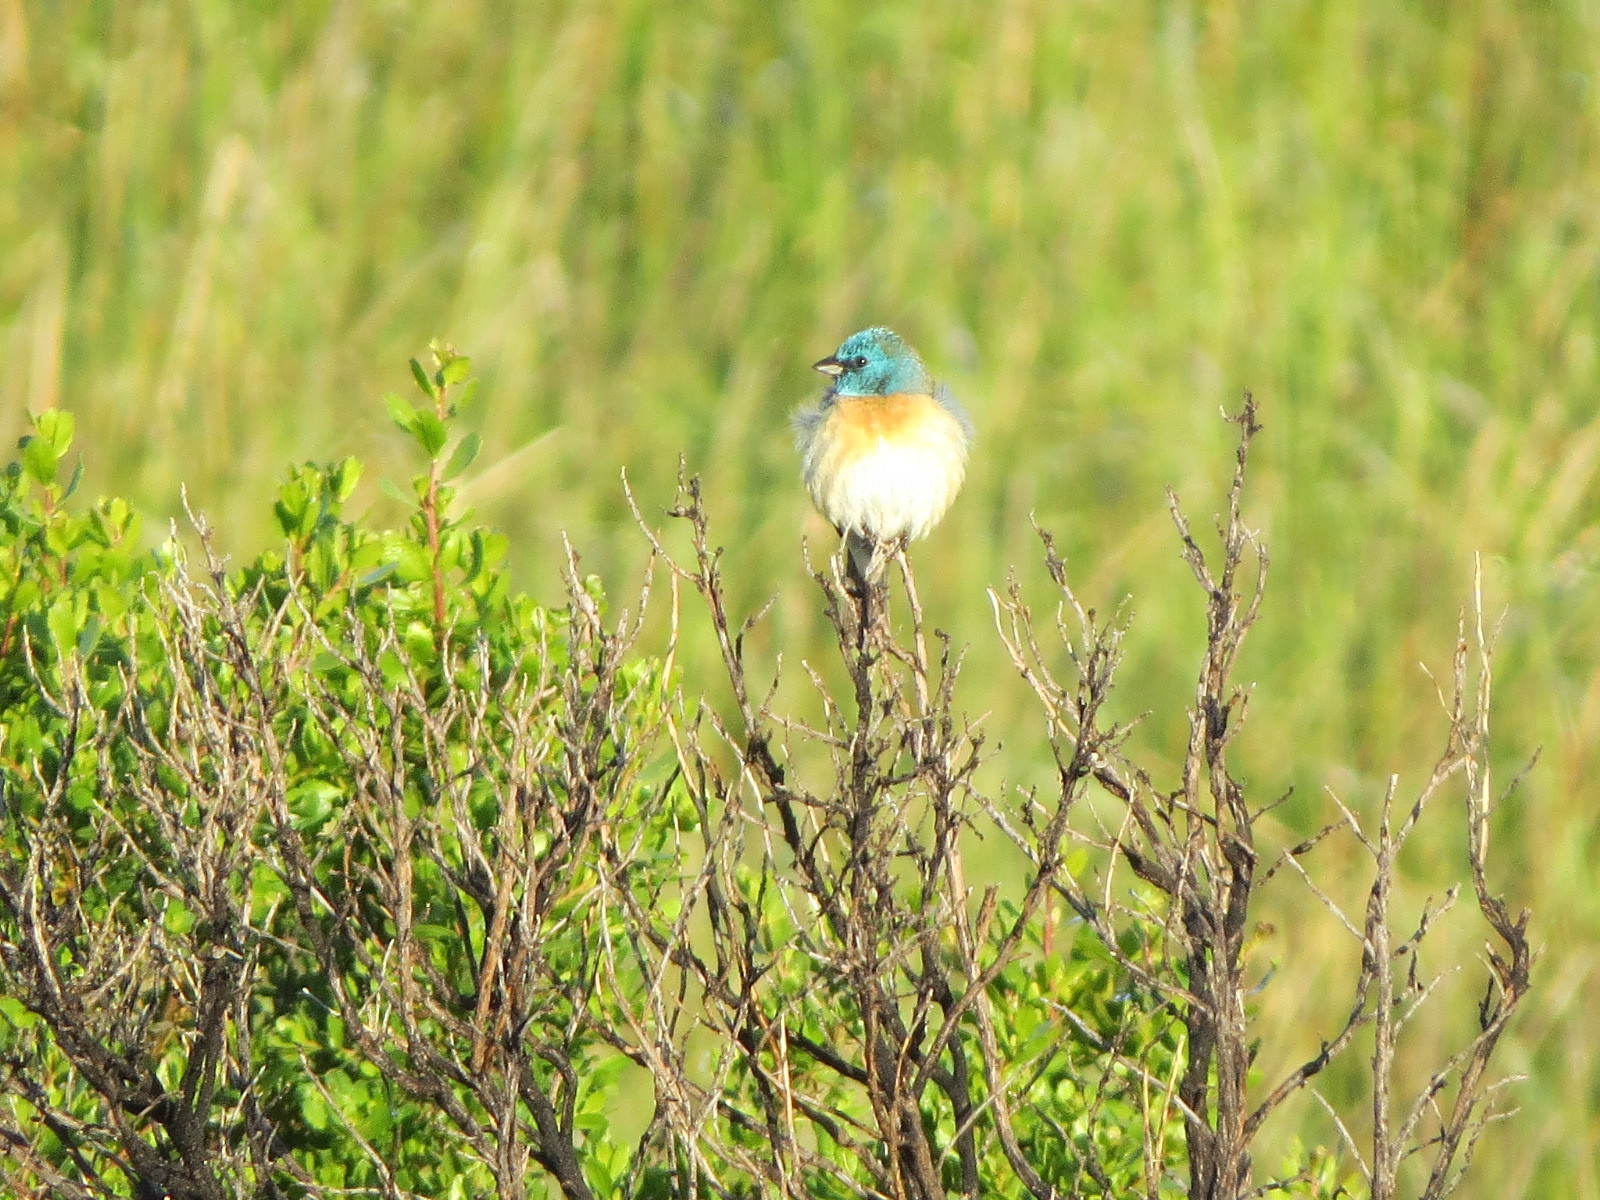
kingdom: Animalia
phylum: Chordata
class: Aves
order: Passeriformes
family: Cardinalidae
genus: Passerina
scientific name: Passerina amoena
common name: Lazuli bunting
